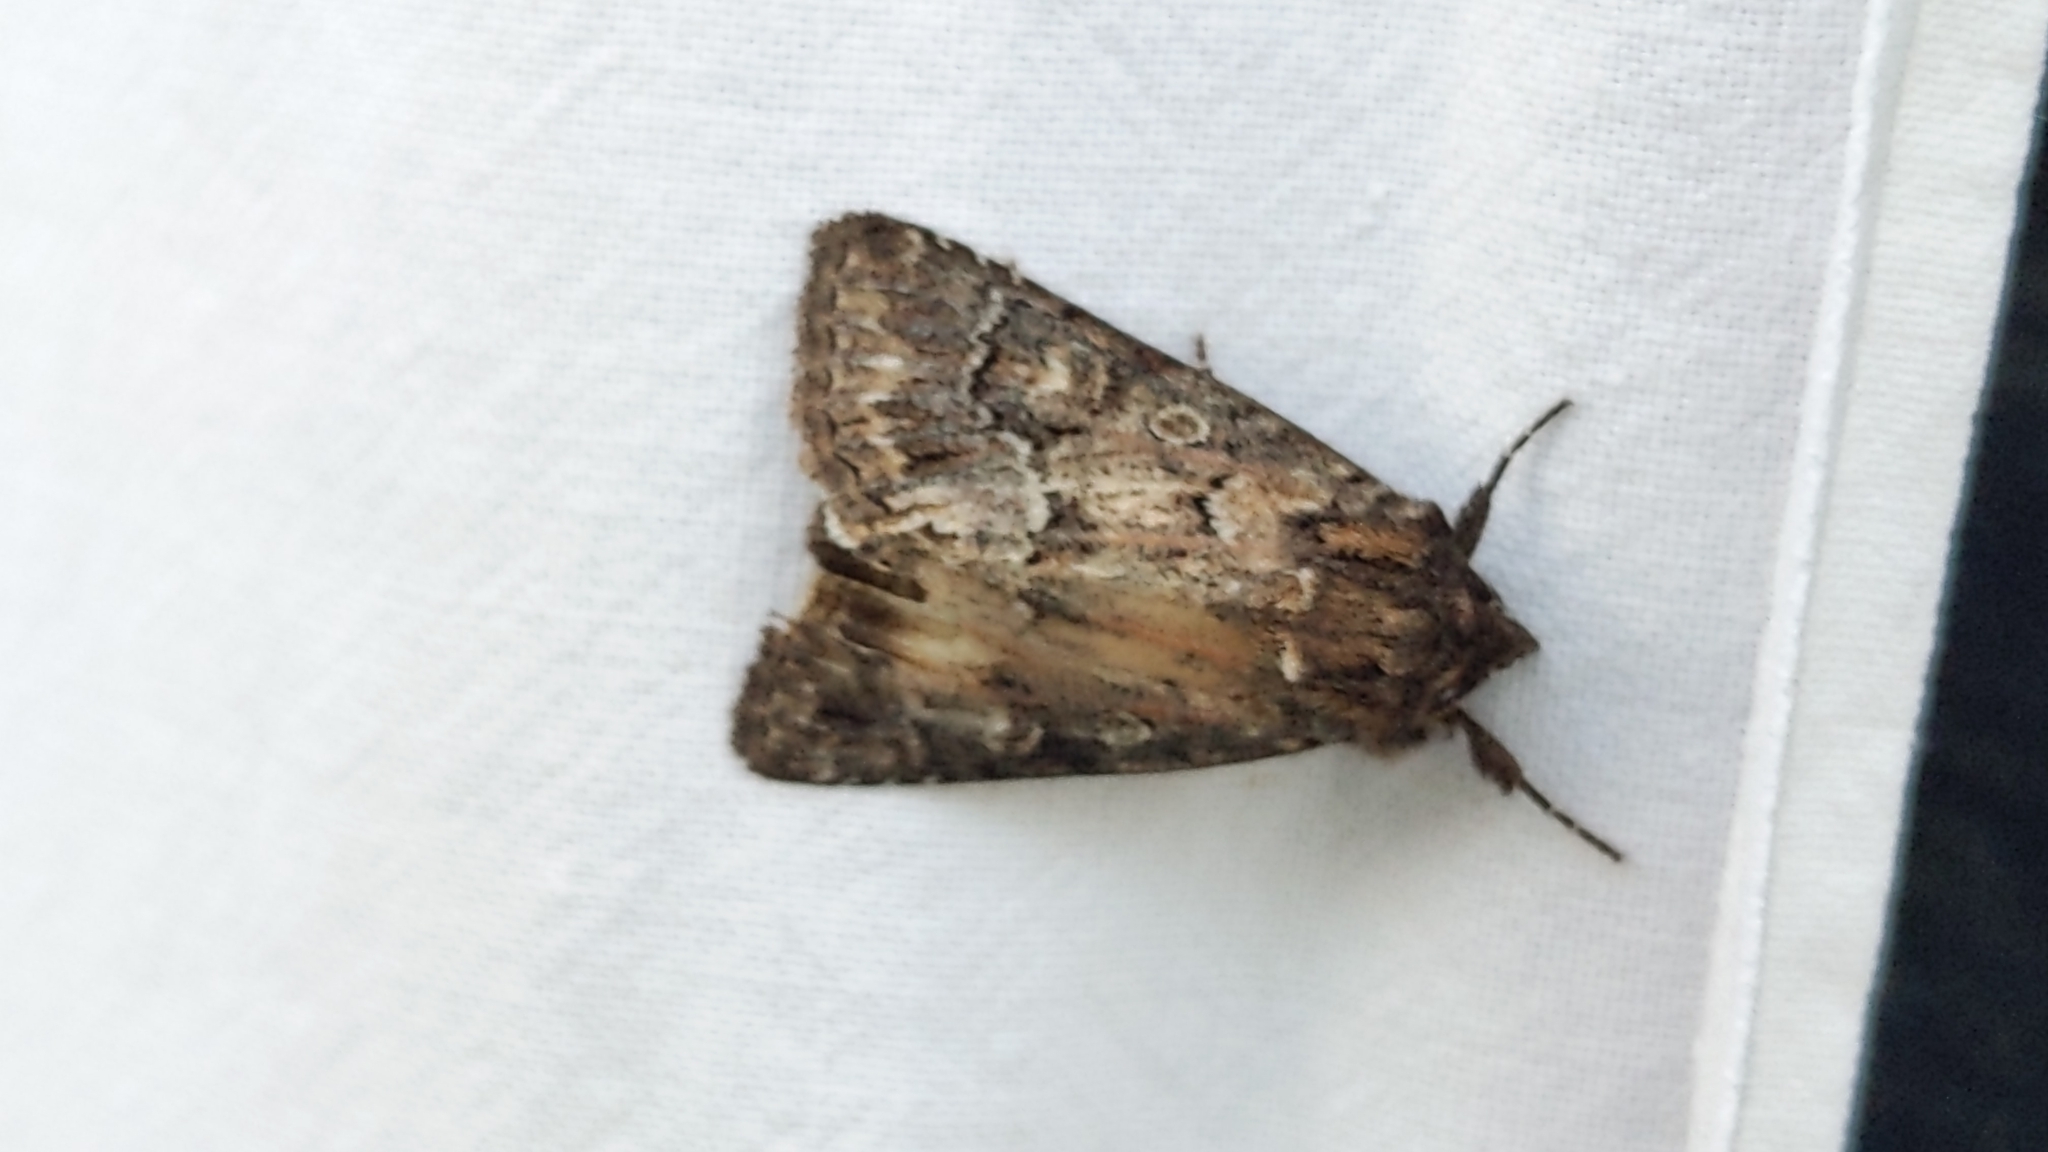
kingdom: Animalia
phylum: Arthropoda
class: Insecta
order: Lepidoptera
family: Noctuidae
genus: Thalpophila
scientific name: Thalpophila matura
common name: Straw underwing
